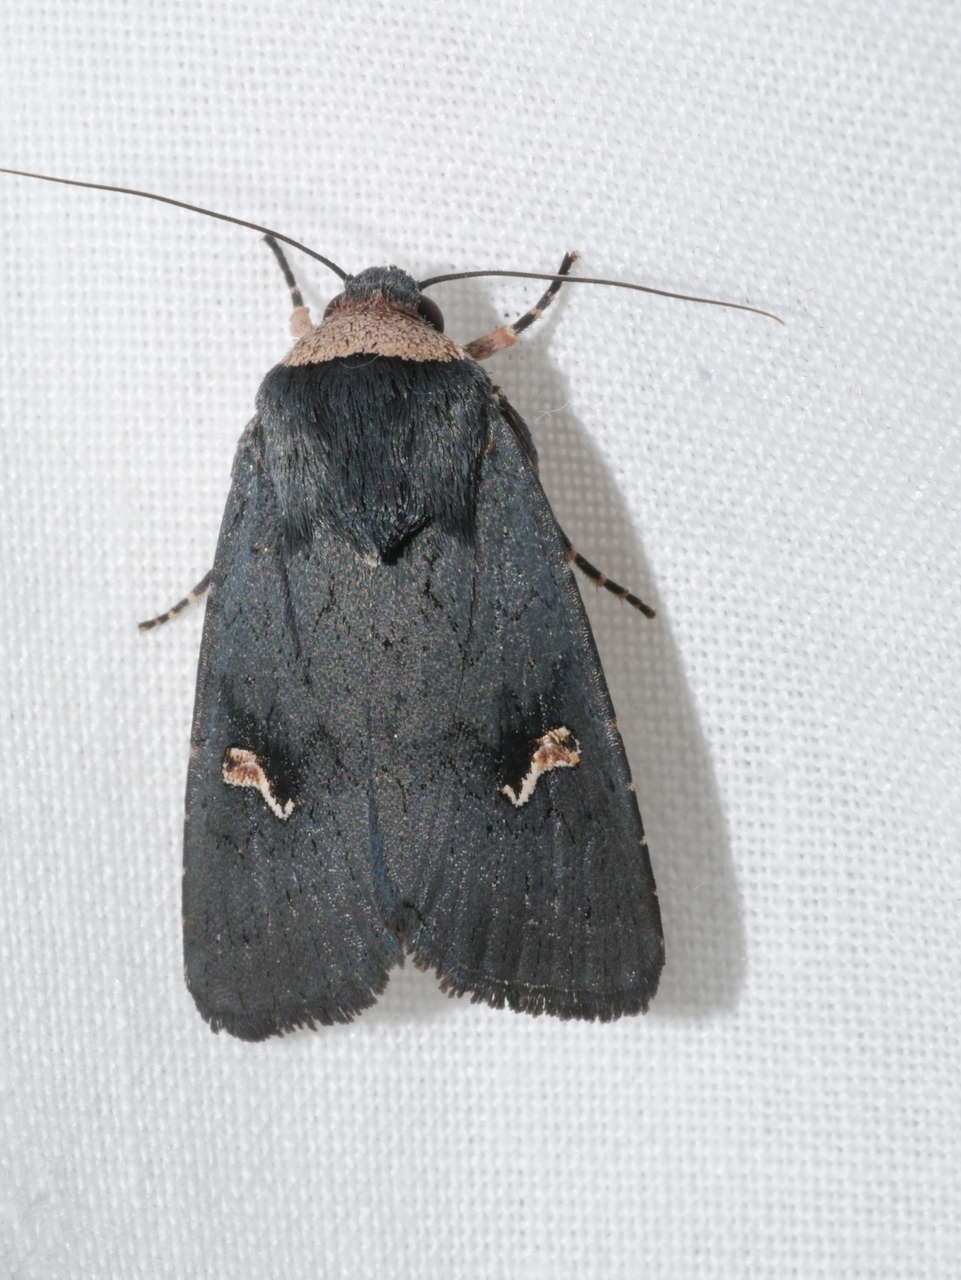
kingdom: Animalia
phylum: Arthropoda
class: Insecta
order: Lepidoptera
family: Noctuidae
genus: Proteuxoa
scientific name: Proteuxoa cinereicollis
